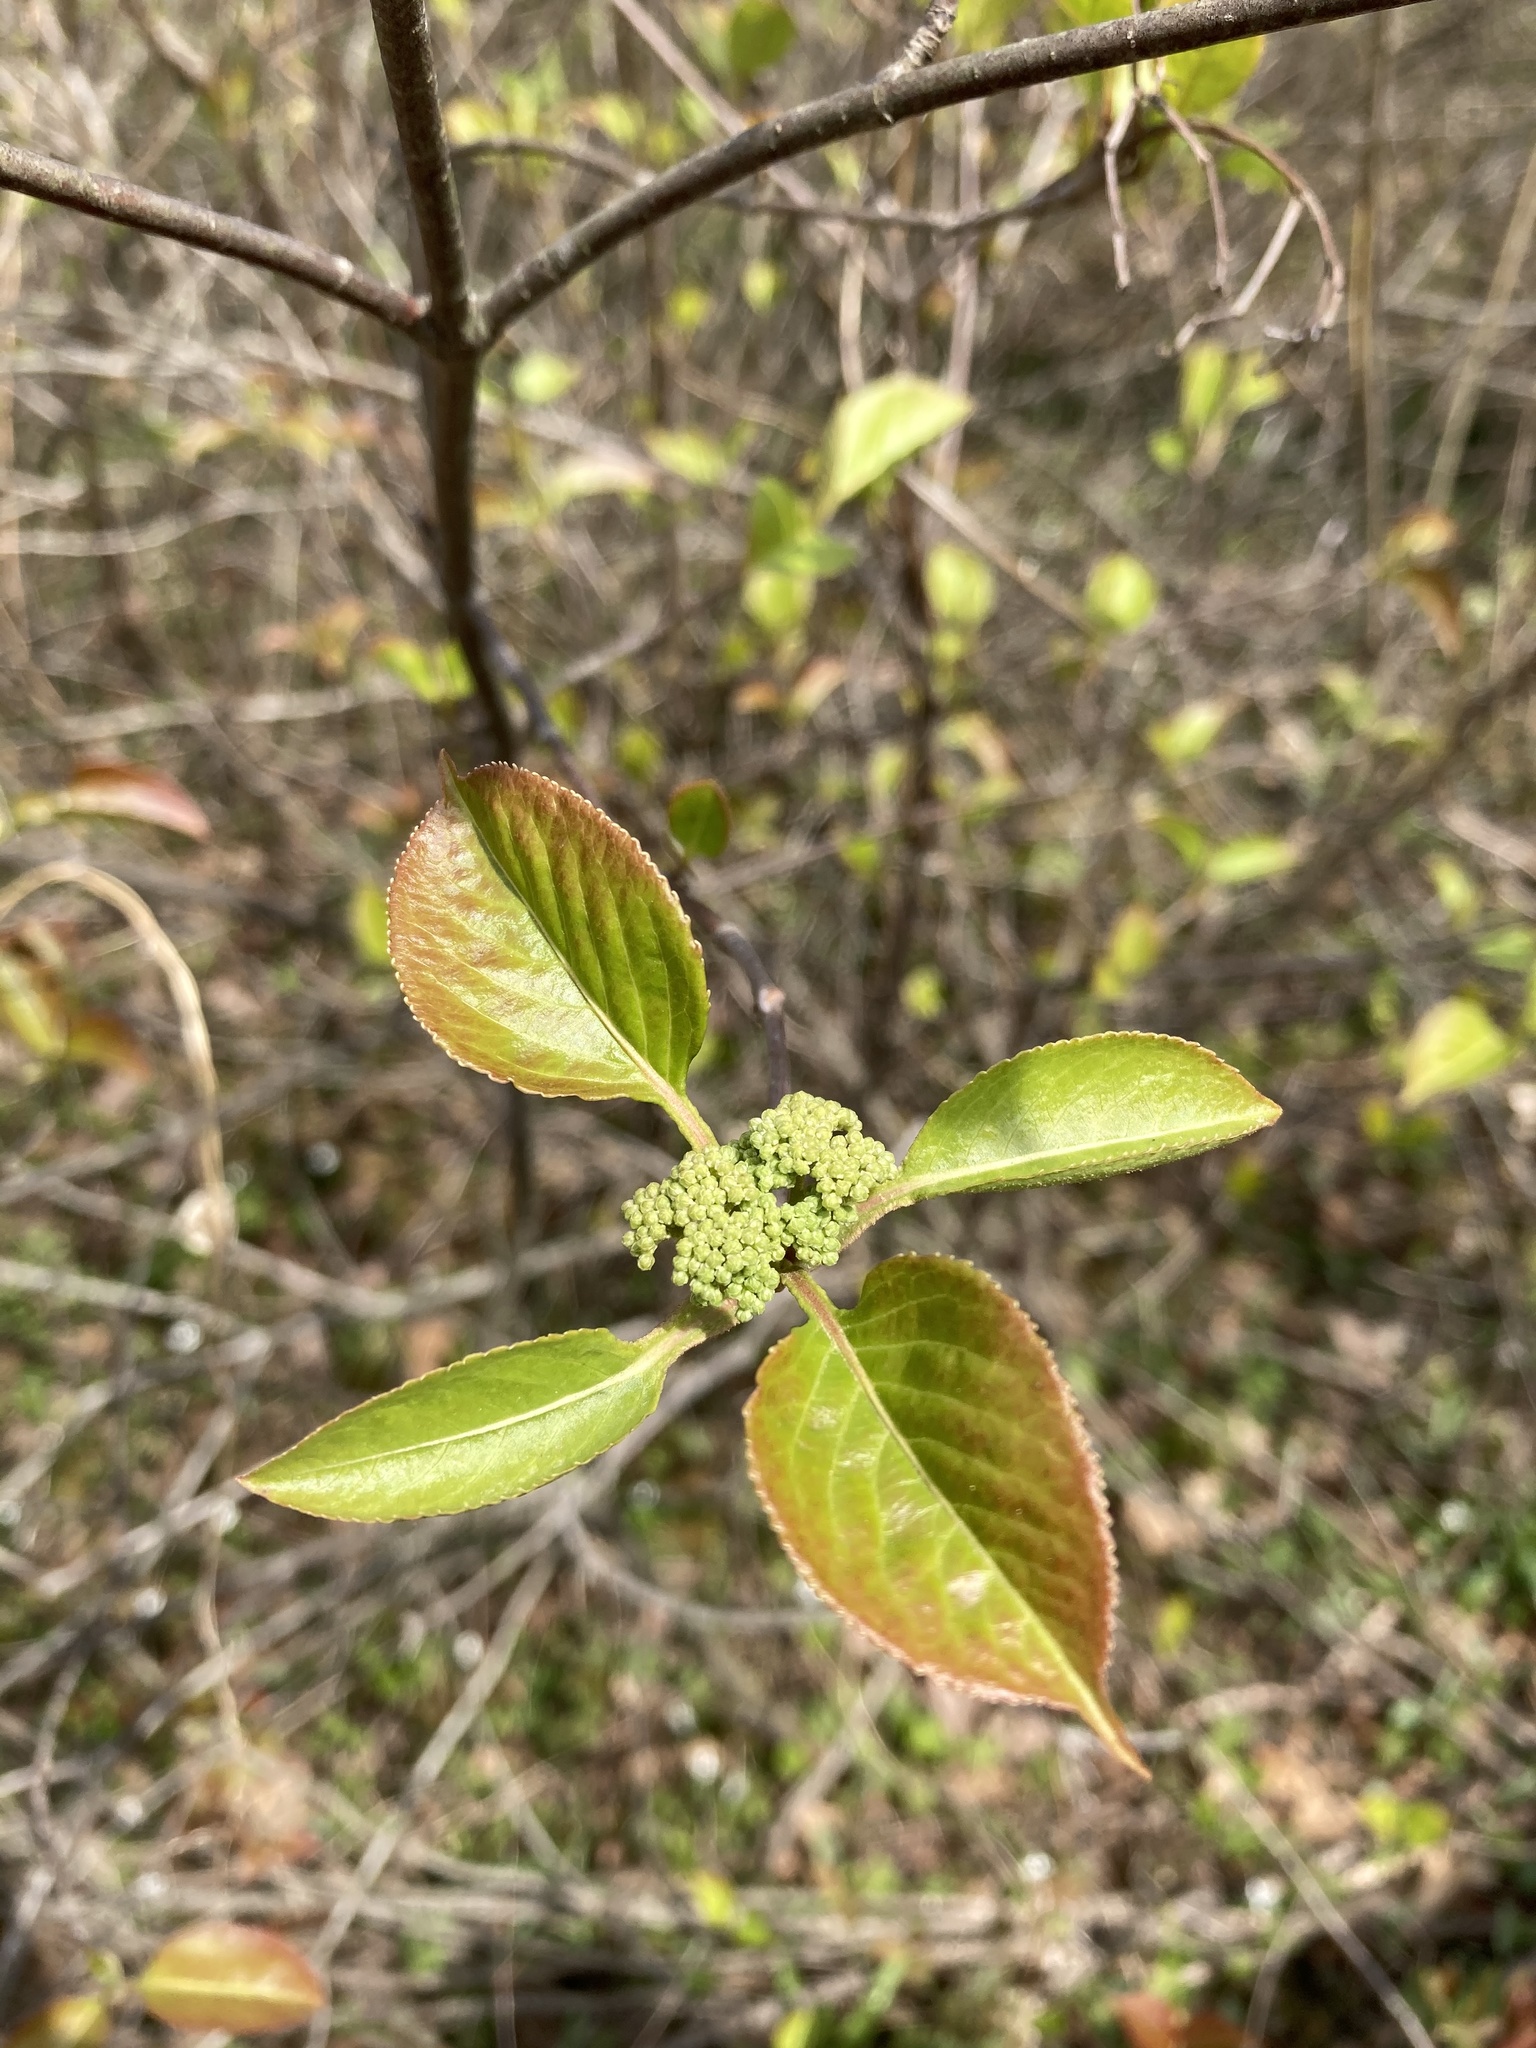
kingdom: Plantae
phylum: Tracheophyta
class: Magnoliopsida
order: Dipsacales
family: Viburnaceae
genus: Viburnum
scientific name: Viburnum lentago
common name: Black haw
